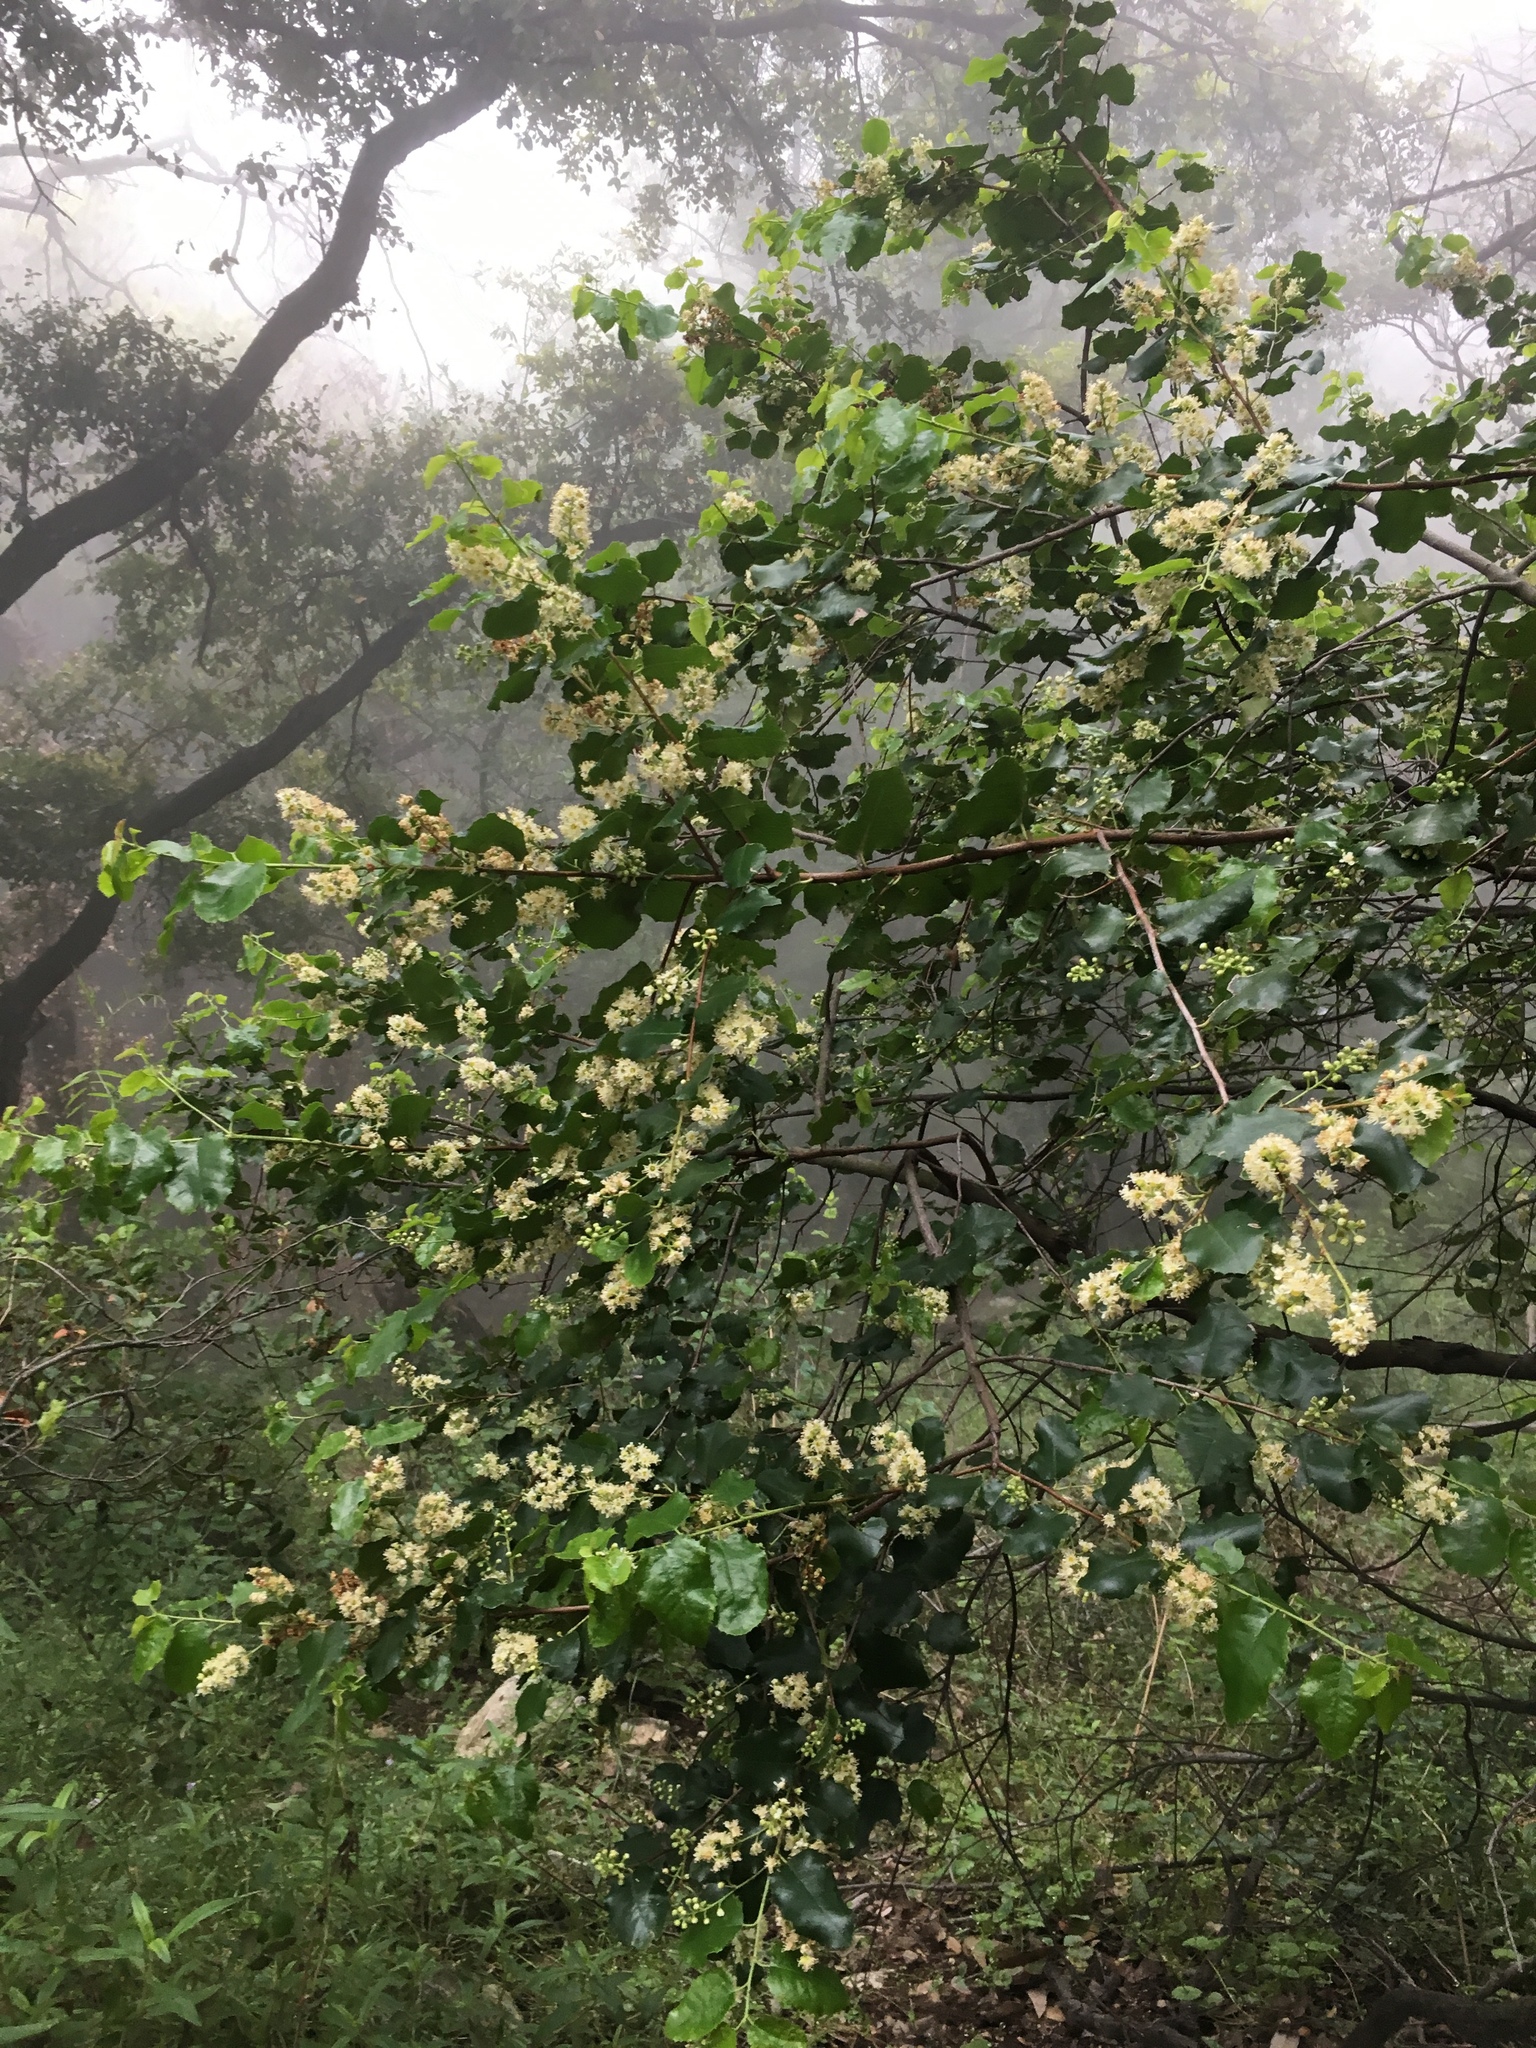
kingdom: Plantae
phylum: Tracheophyta
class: Magnoliopsida
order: Rosales
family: Rosaceae
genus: Prunus
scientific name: Prunus ilicifolia
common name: Hollyleaf cherry
